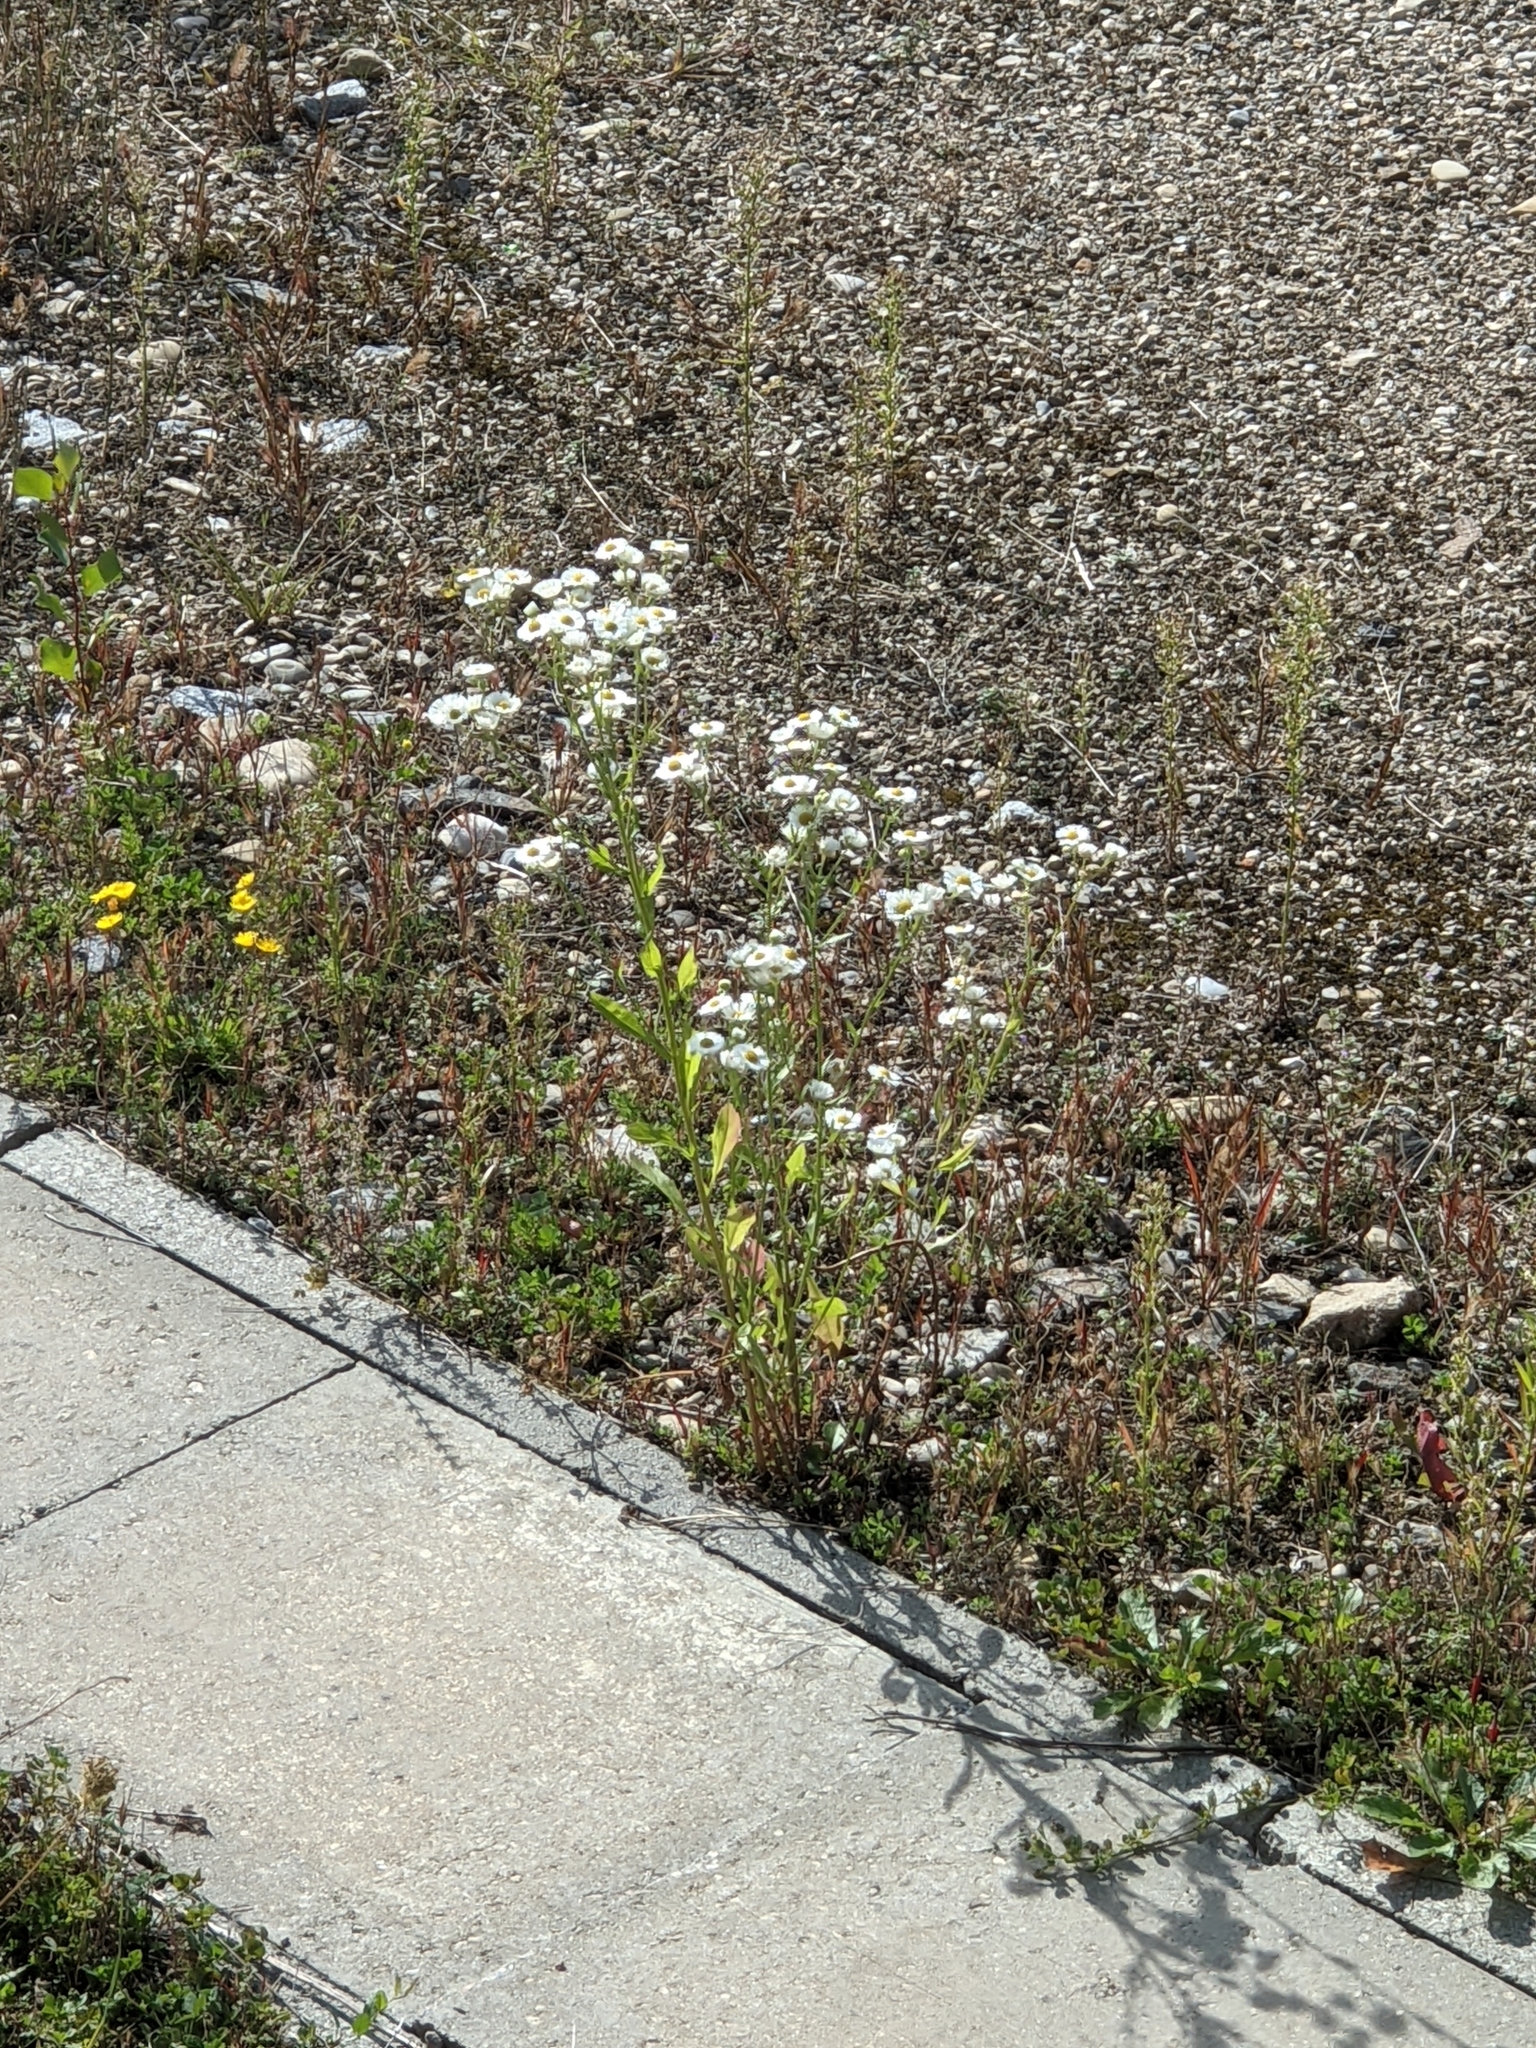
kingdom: Plantae
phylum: Tracheophyta
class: Magnoliopsida
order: Asterales
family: Asteraceae
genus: Erigeron
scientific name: Erigeron annuus
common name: Tall fleabane
